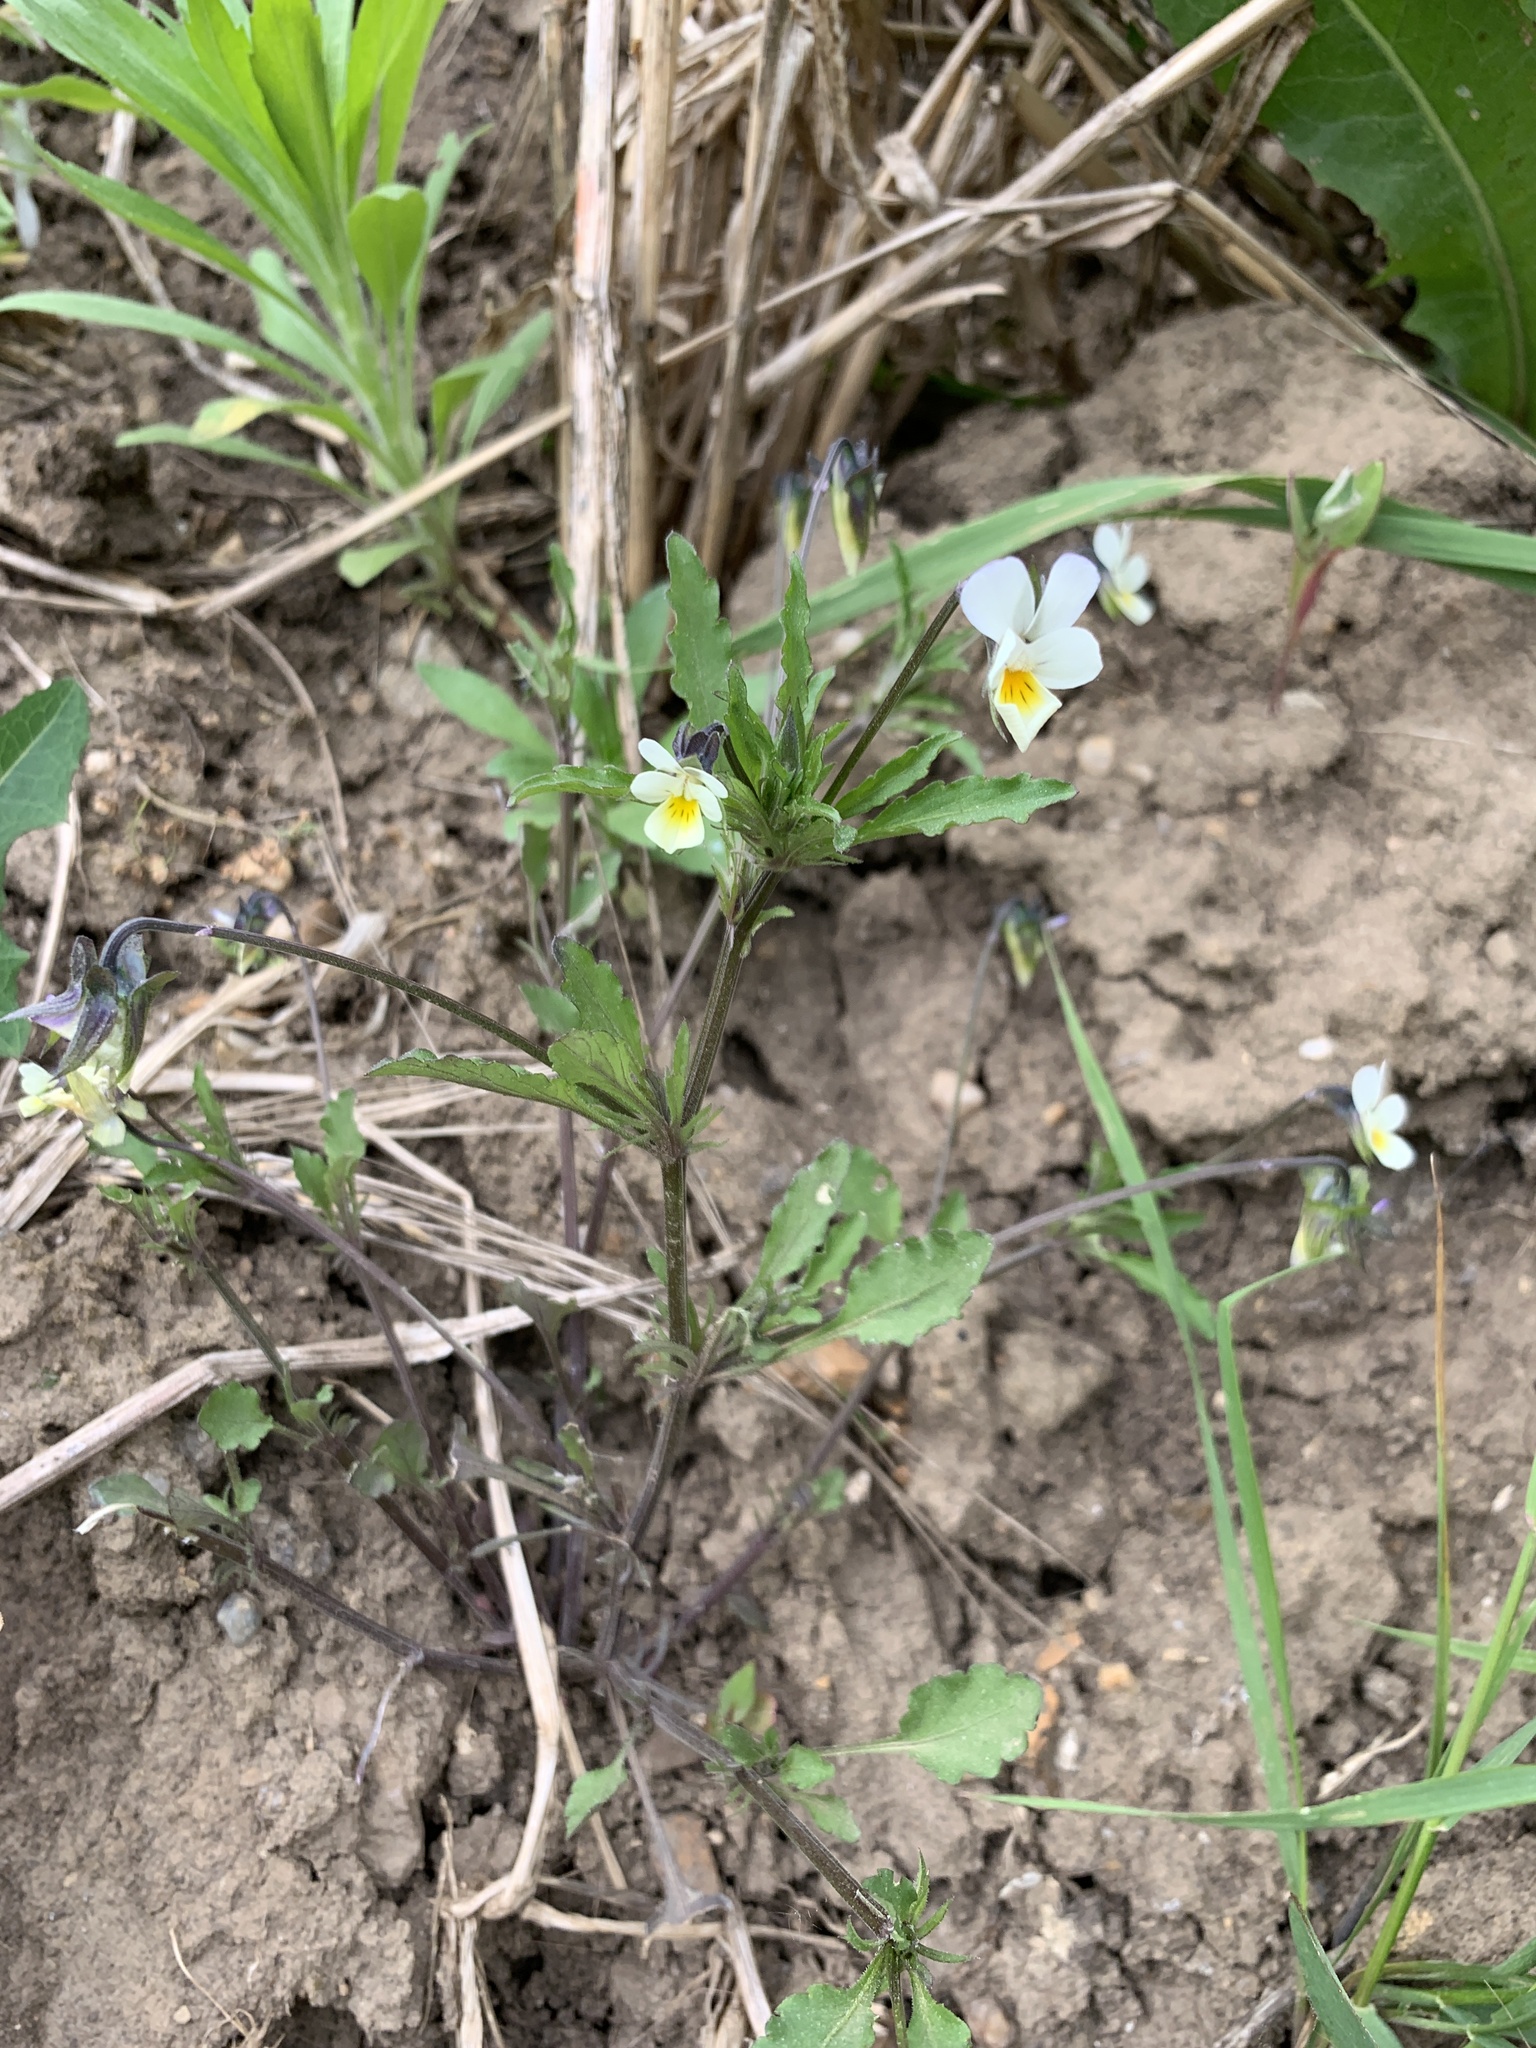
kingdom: Plantae
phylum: Tracheophyta
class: Magnoliopsida
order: Malpighiales
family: Violaceae
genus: Viola
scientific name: Viola arvensis
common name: Field pansy
